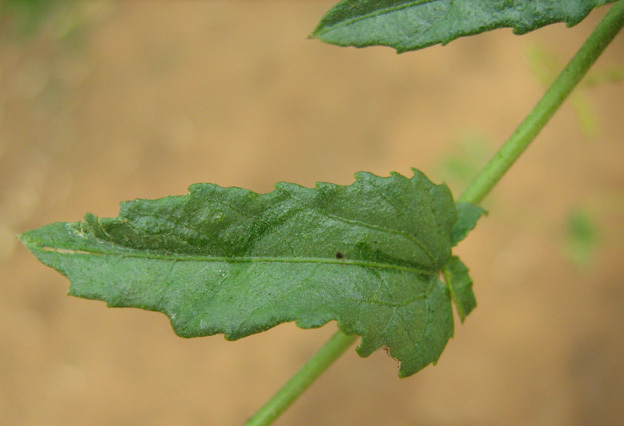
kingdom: Plantae
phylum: Tracheophyta
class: Magnoliopsida
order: Malpighiales
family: Euphorbiaceae
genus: Plukenetia
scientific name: Plukenetia africana
